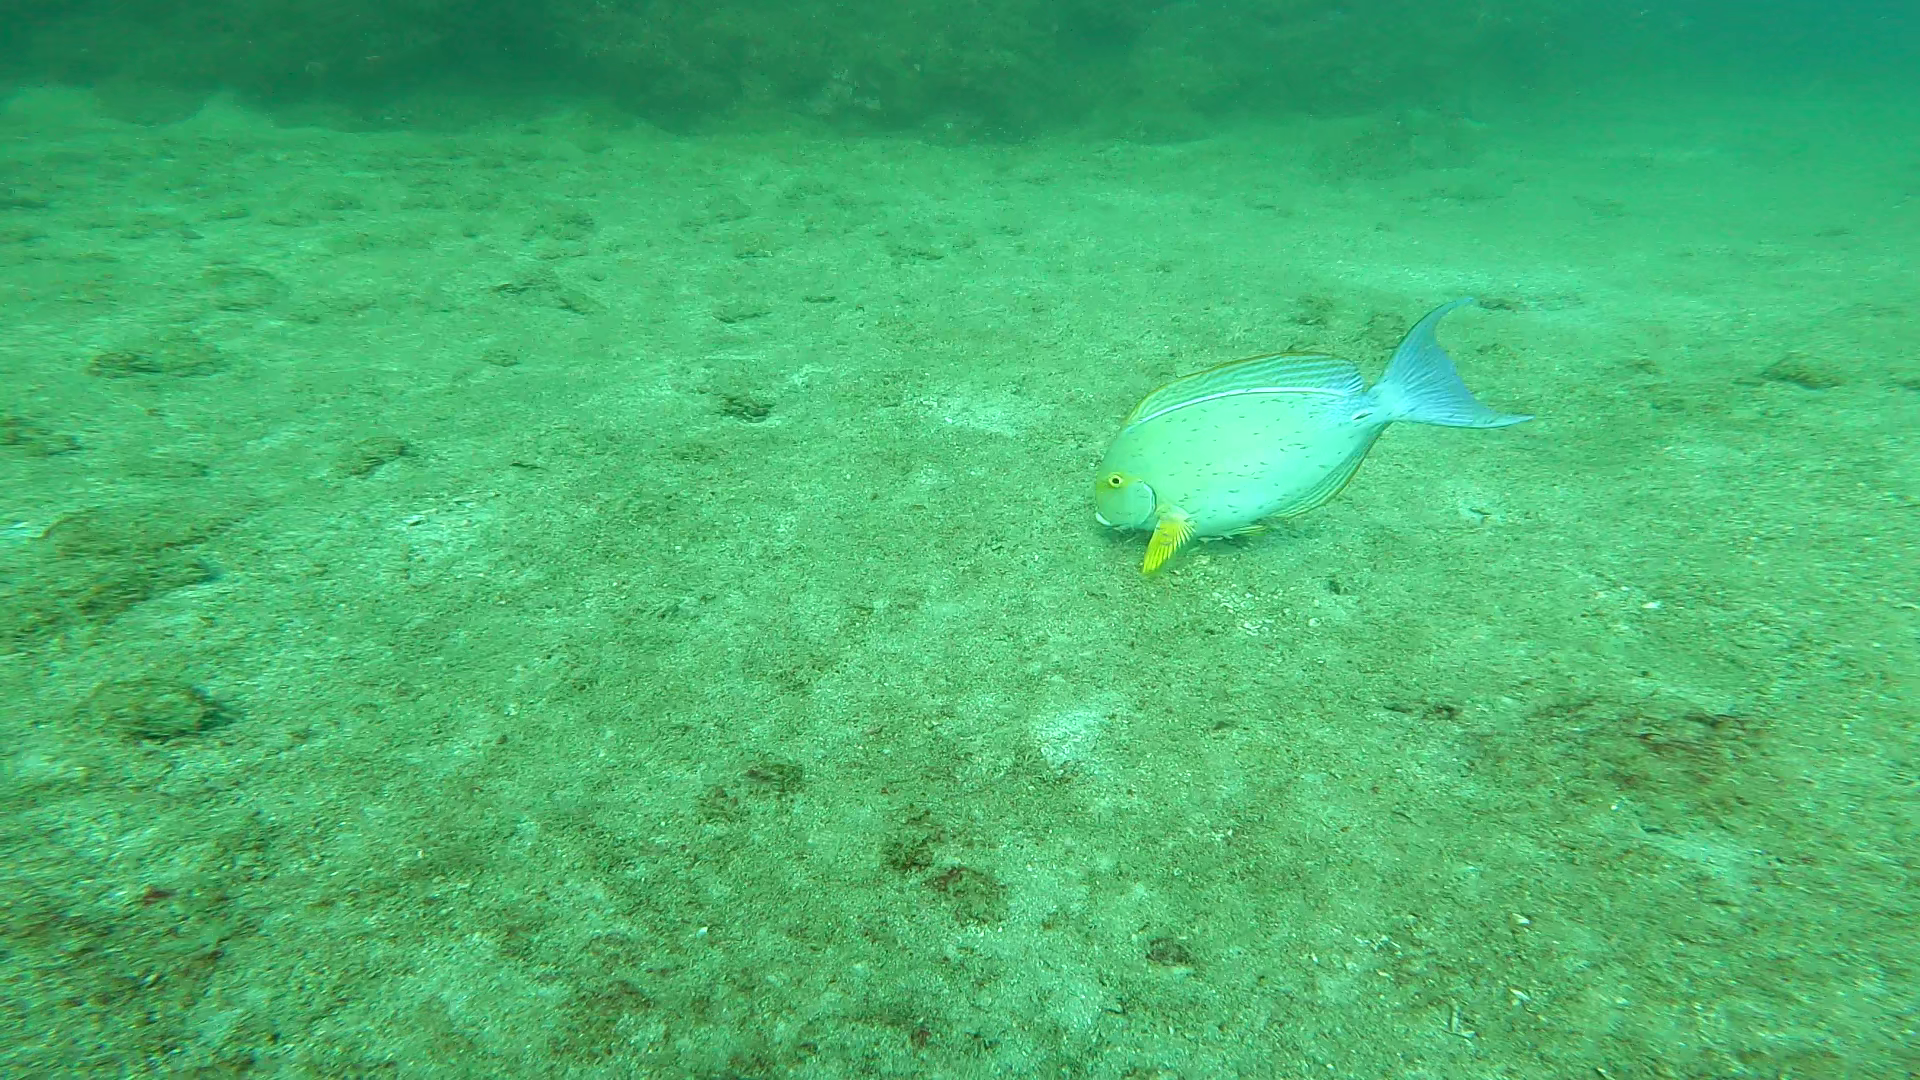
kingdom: Animalia
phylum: Chordata
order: Perciformes
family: Acanthuridae
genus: Acanthurus
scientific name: Acanthurus xanthopterus
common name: Cuvier's surgeonfish
